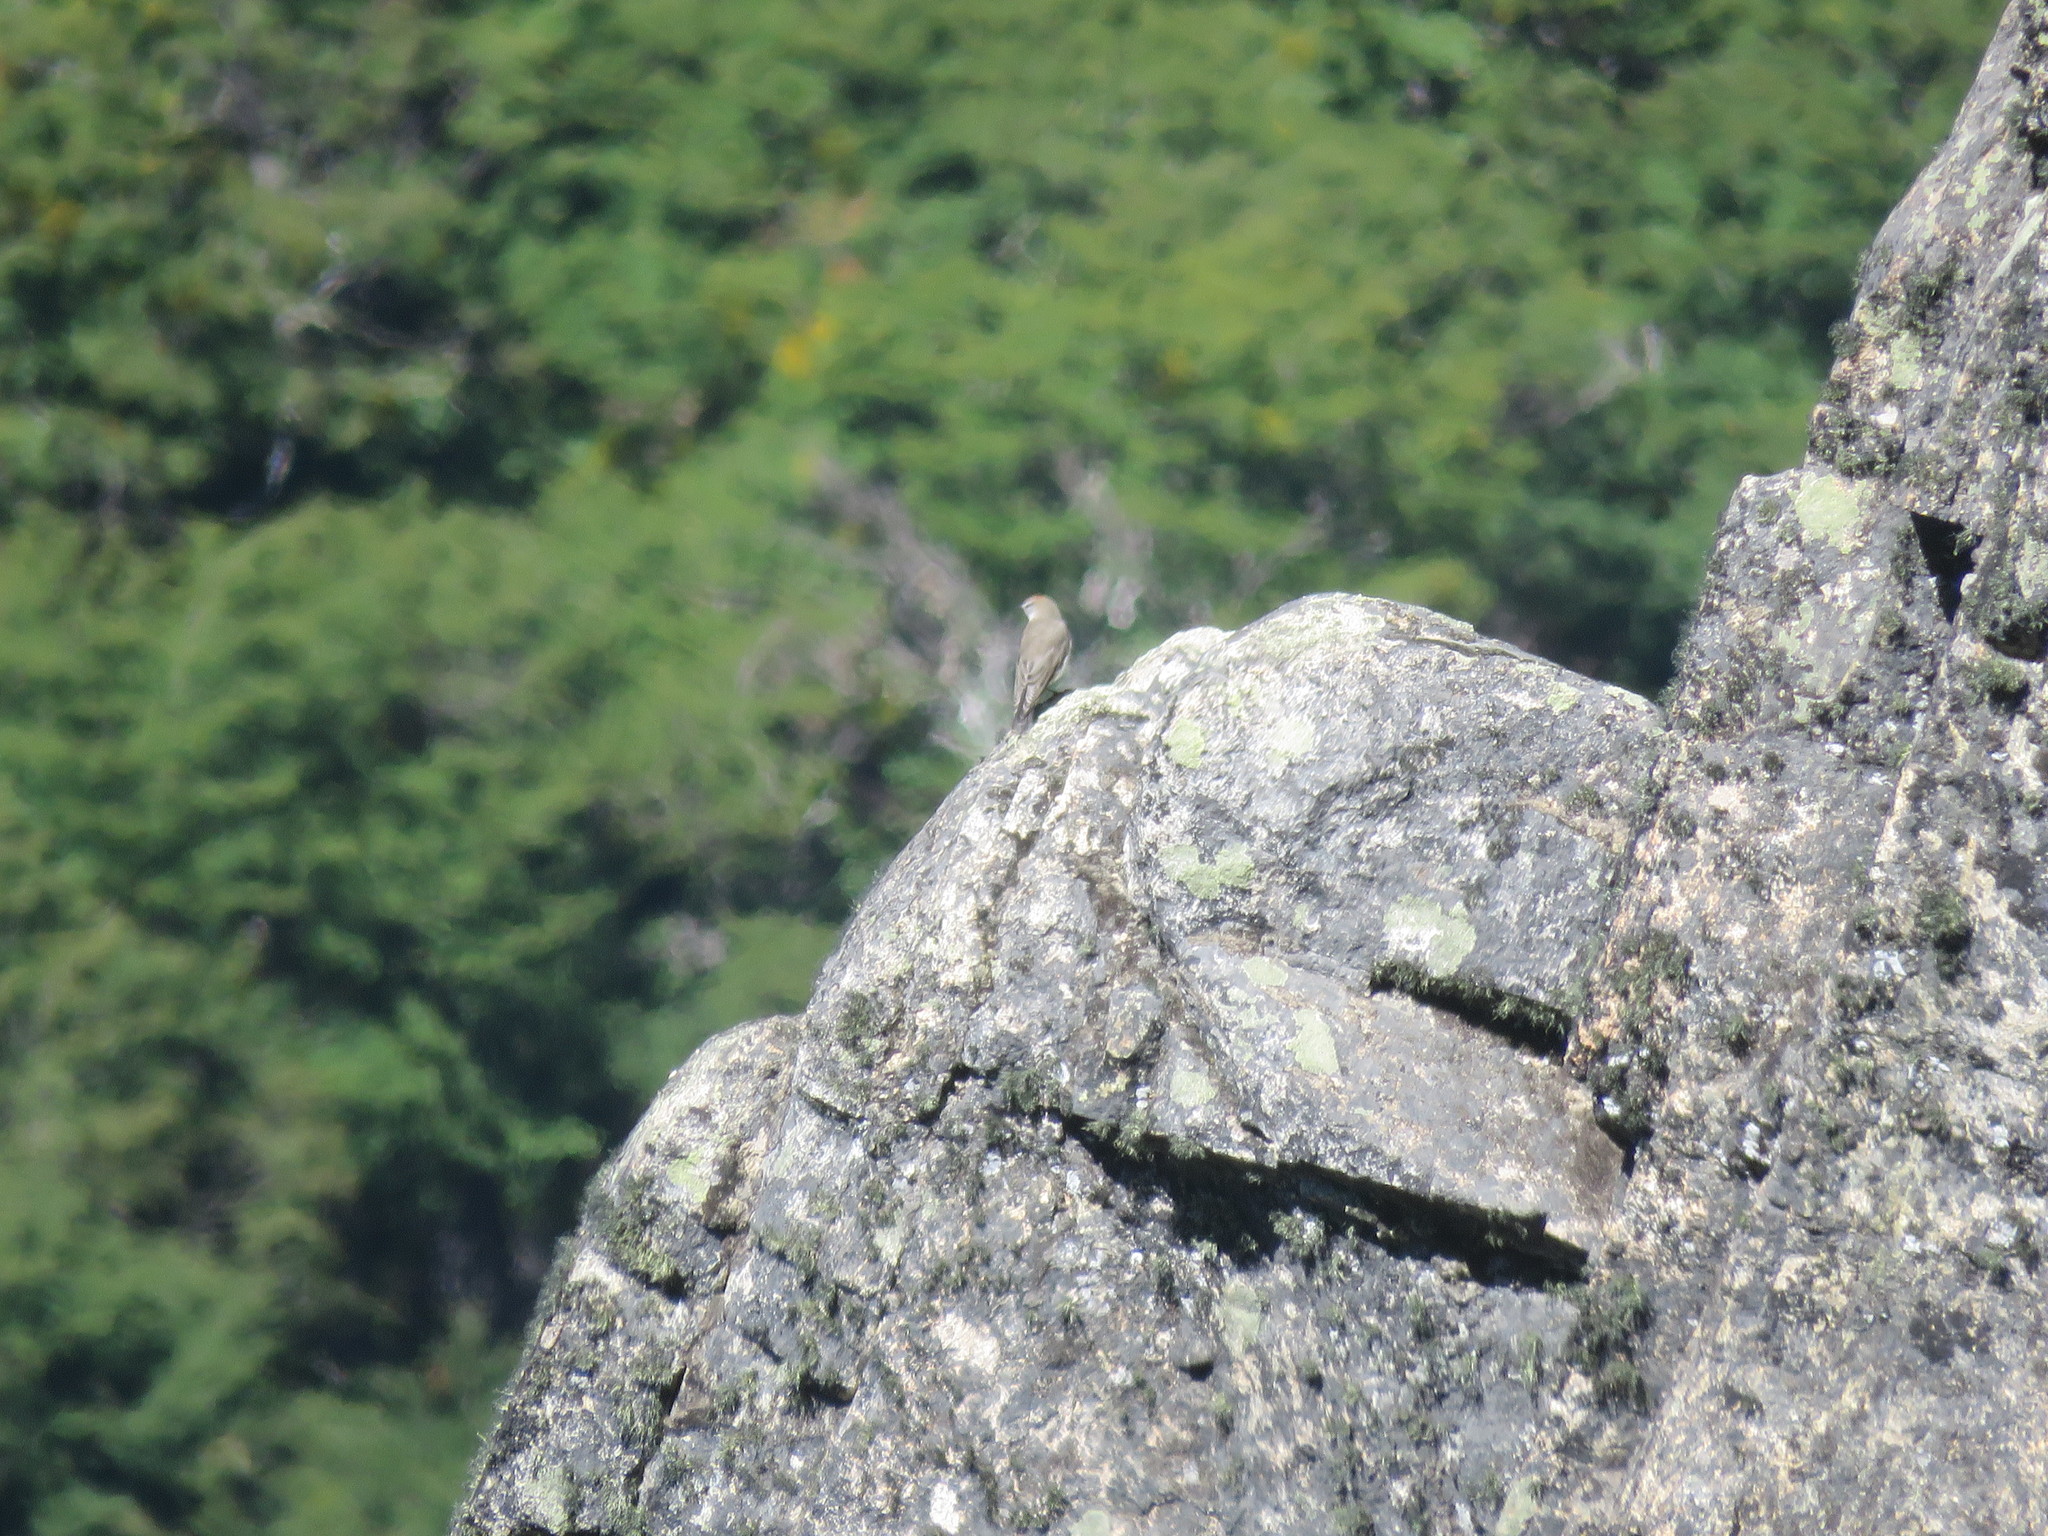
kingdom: Animalia
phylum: Chordata
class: Aves
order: Passeriformes
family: Tyrannidae
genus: Muscisaxicola
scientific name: Muscisaxicola albilora
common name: White-browed ground tyrant
